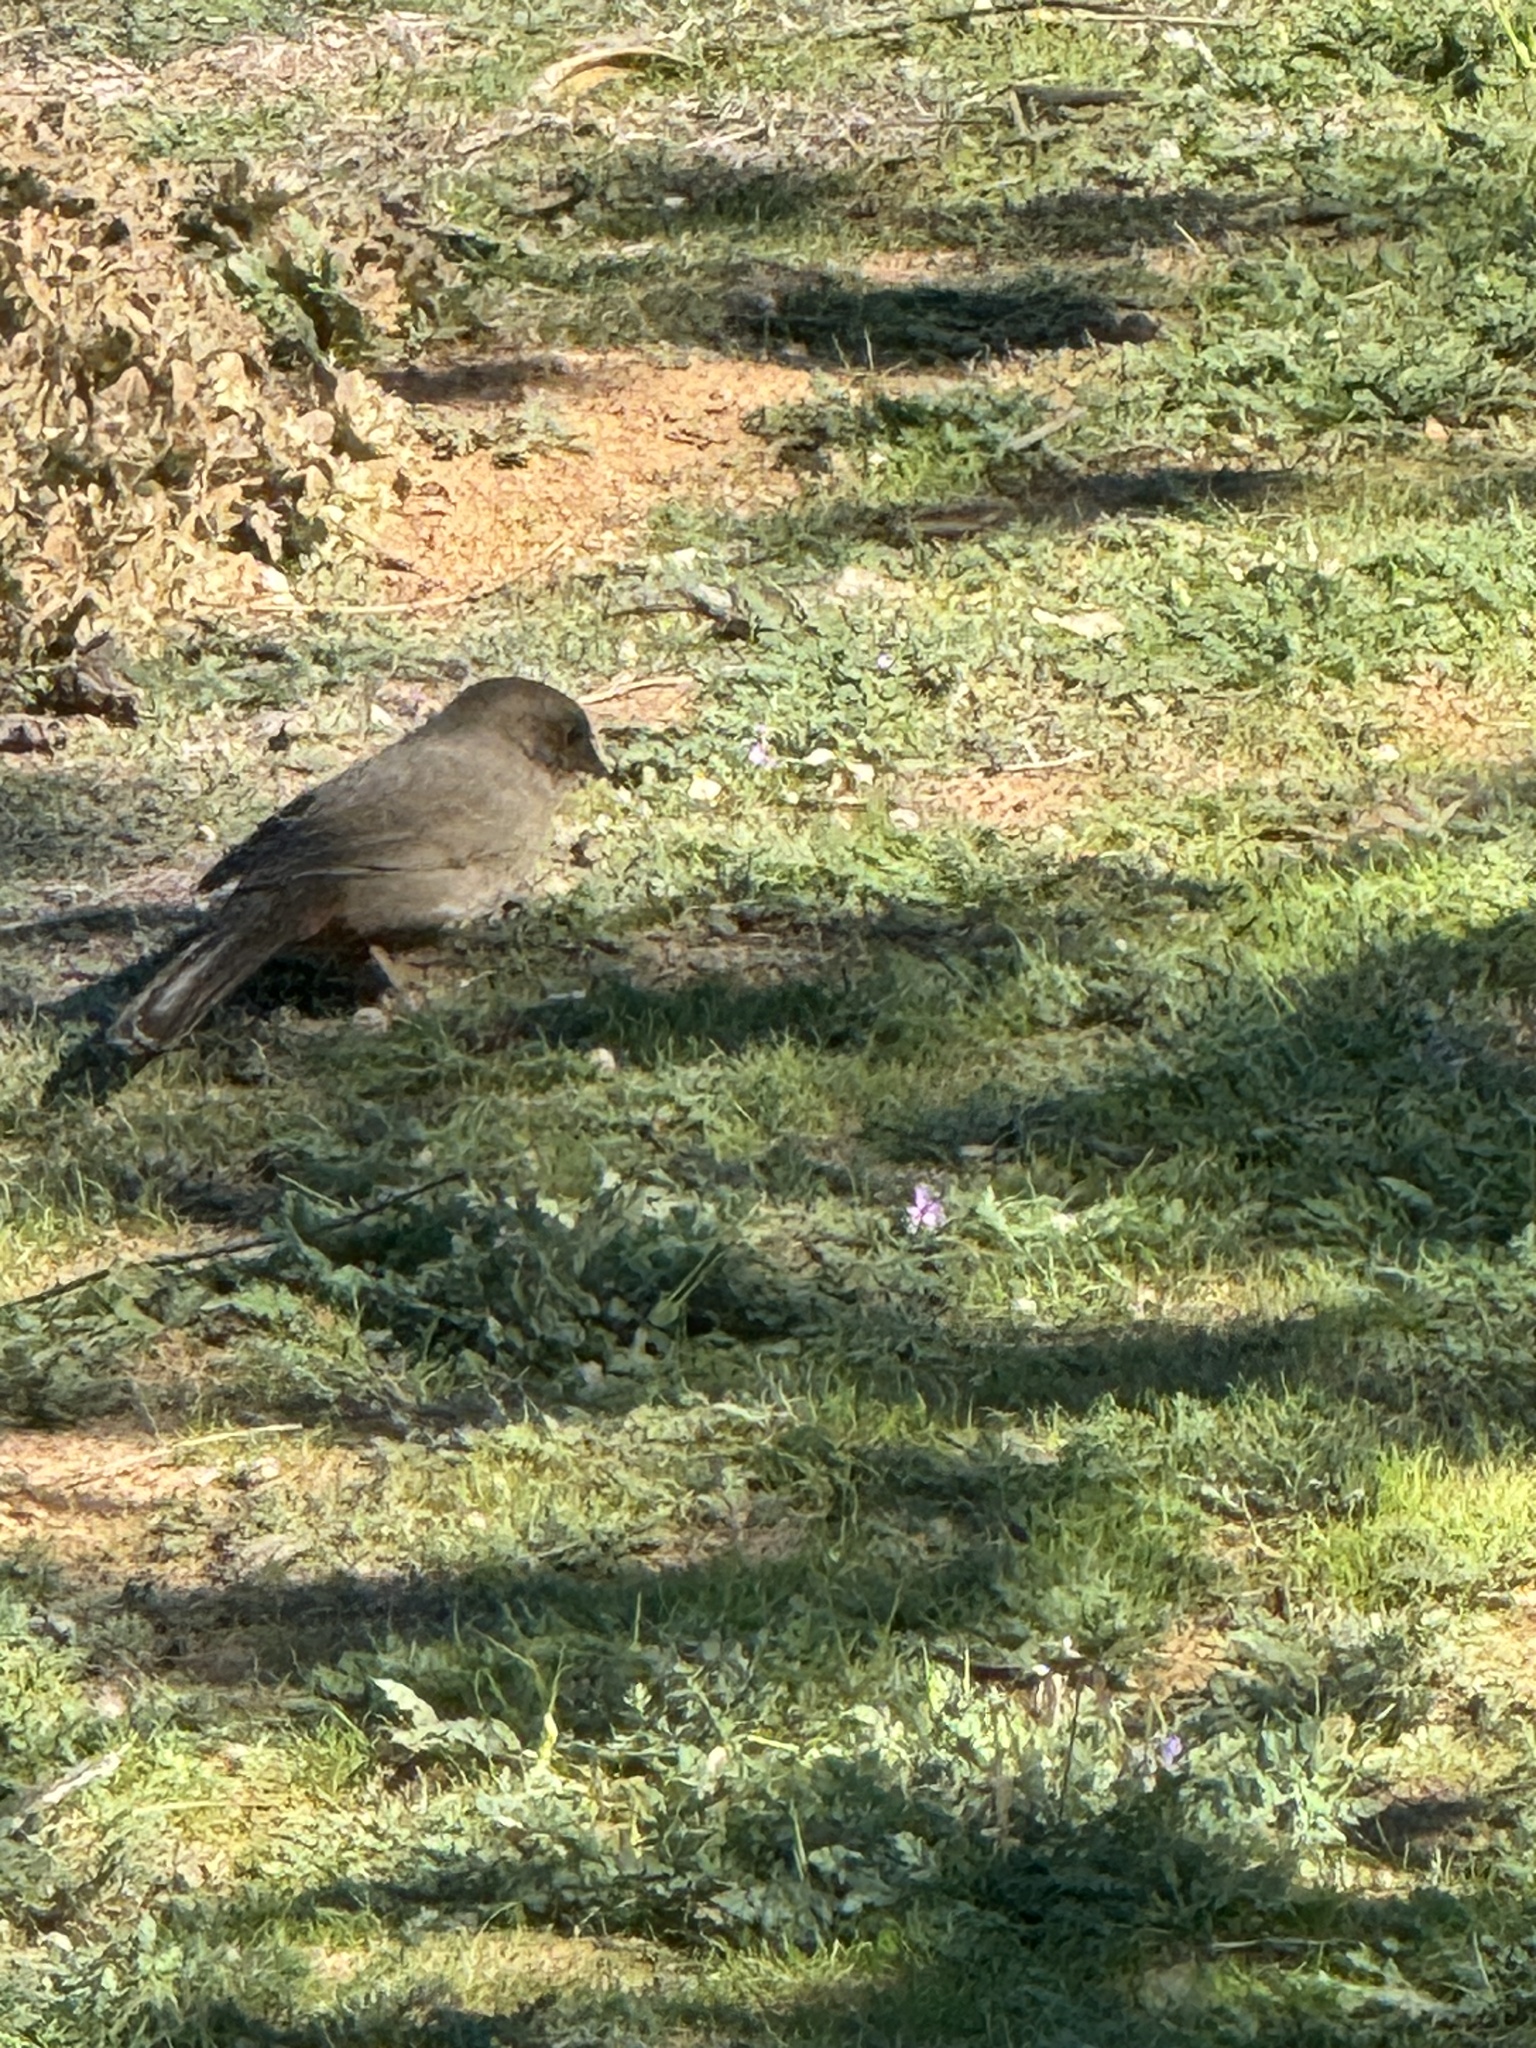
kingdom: Animalia
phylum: Chordata
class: Aves
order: Passeriformes
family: Passerellidae
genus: Melozone
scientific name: Melozone crissalis
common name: California towhee
